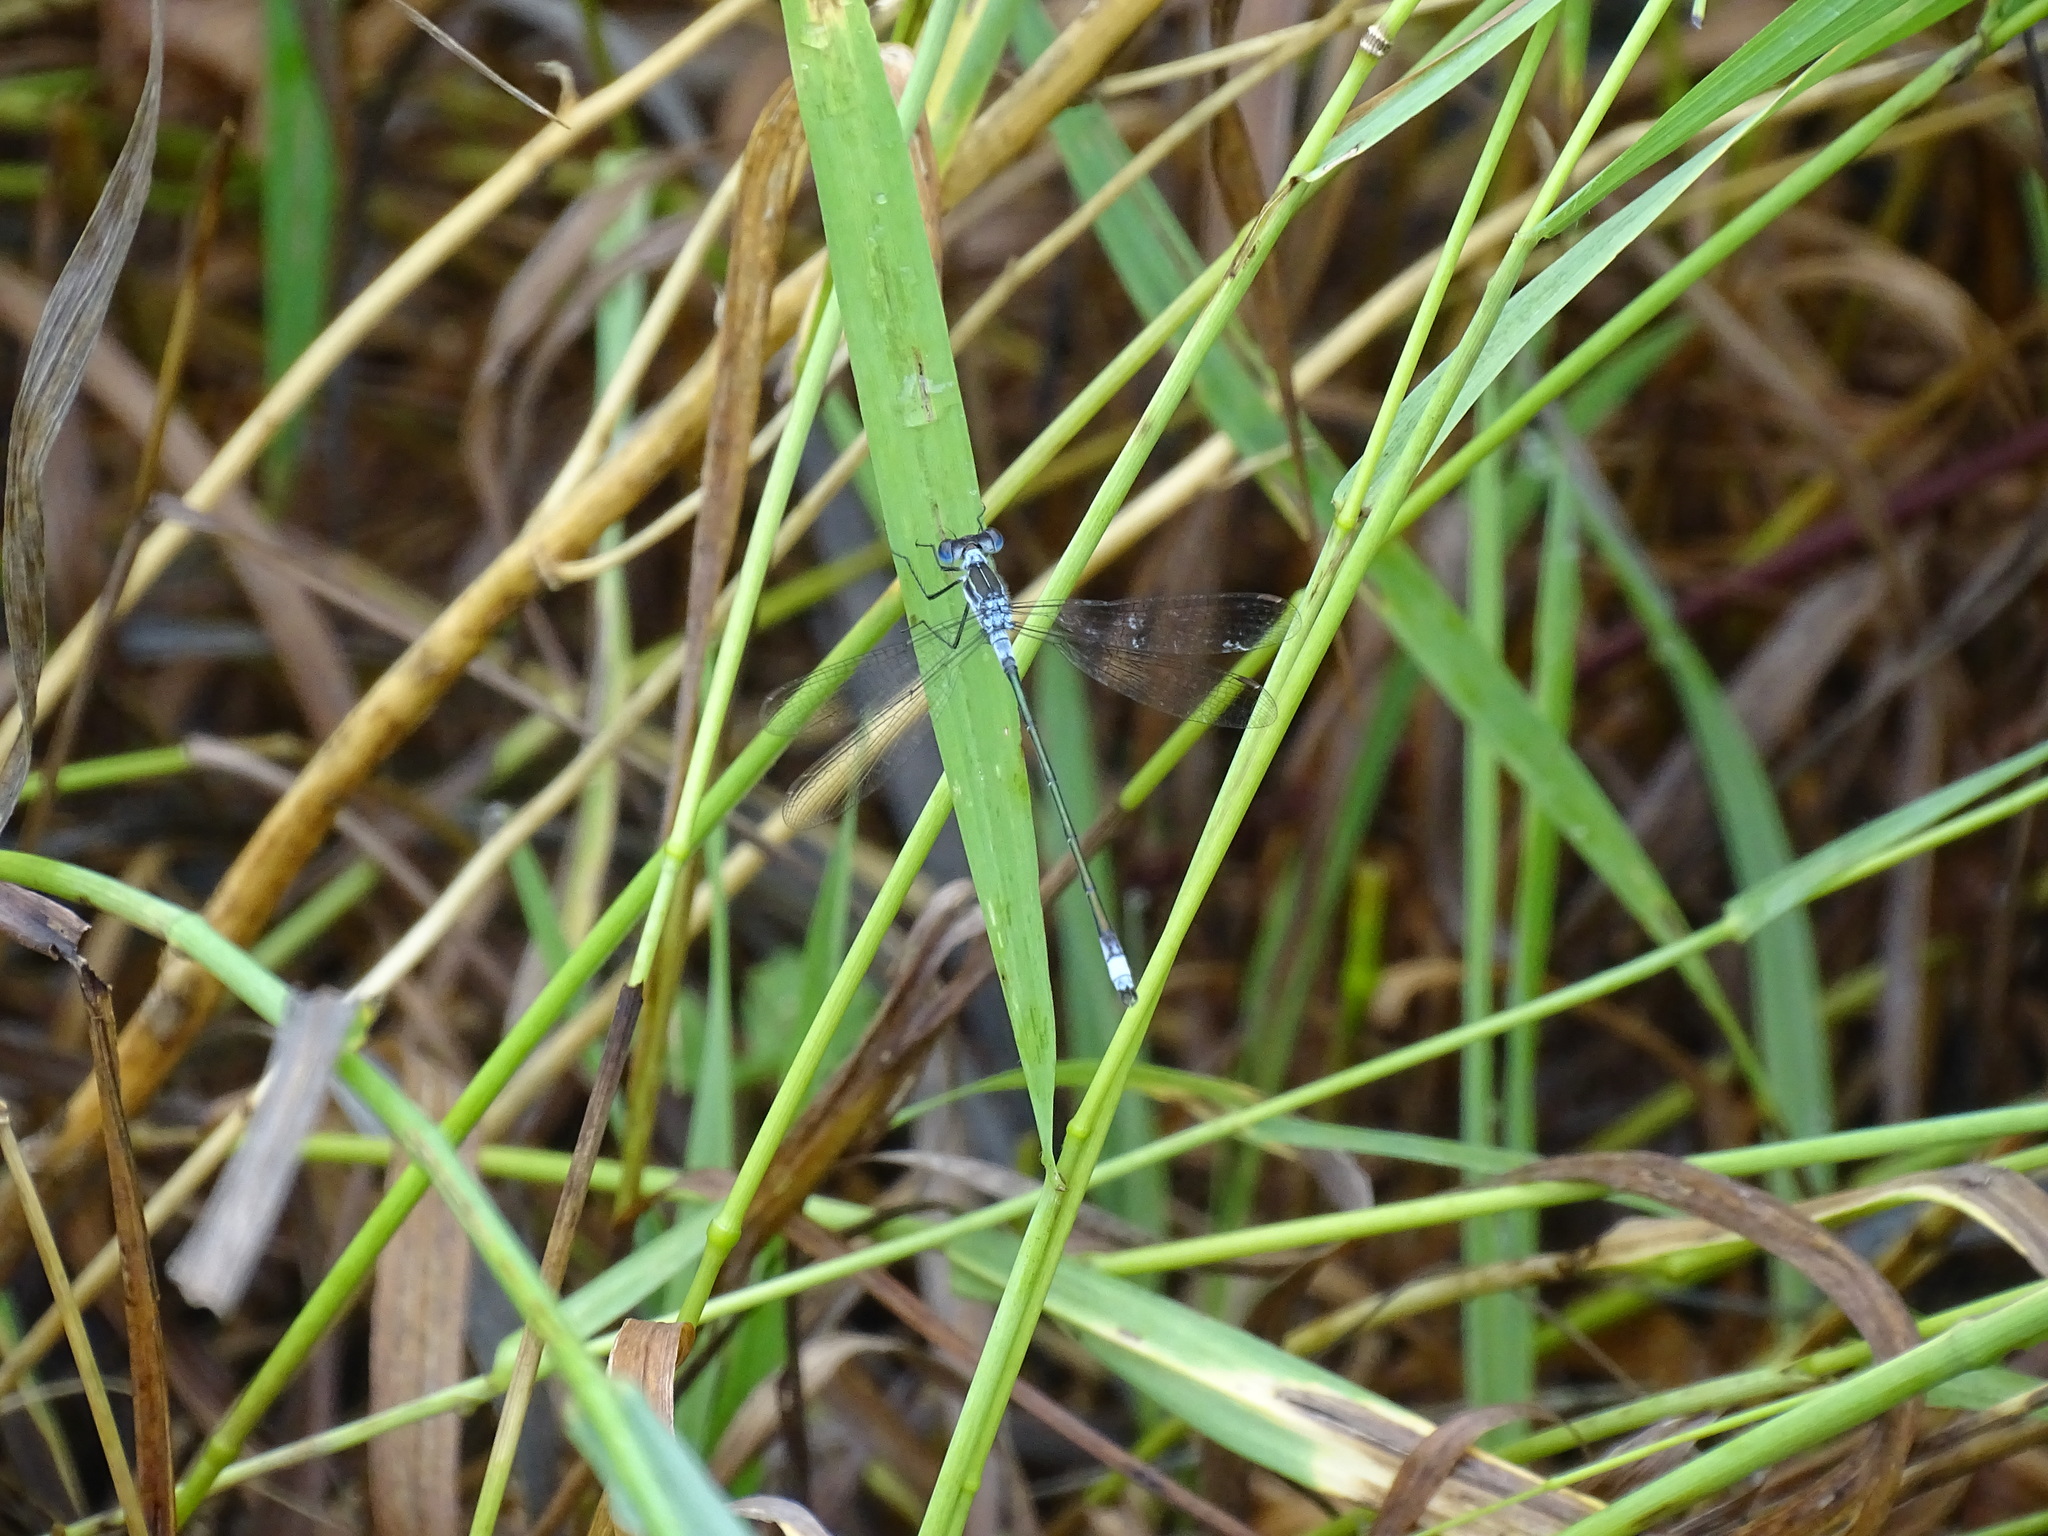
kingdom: Animalia
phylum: Arthropoda
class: Insecta
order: Odonata
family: Lestidae
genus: Lestes
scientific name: Lestes unguiculatus
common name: Lyre-tipped spreadwing
